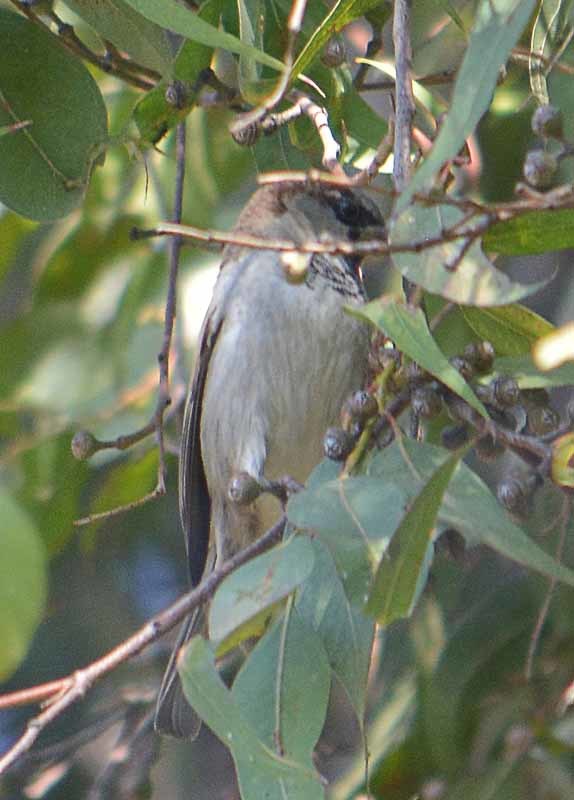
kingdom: Animalia
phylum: Chordata
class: Aves
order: Passeriformes
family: Passeridae
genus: Passer
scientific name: Passer domesticus
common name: House sparrow
